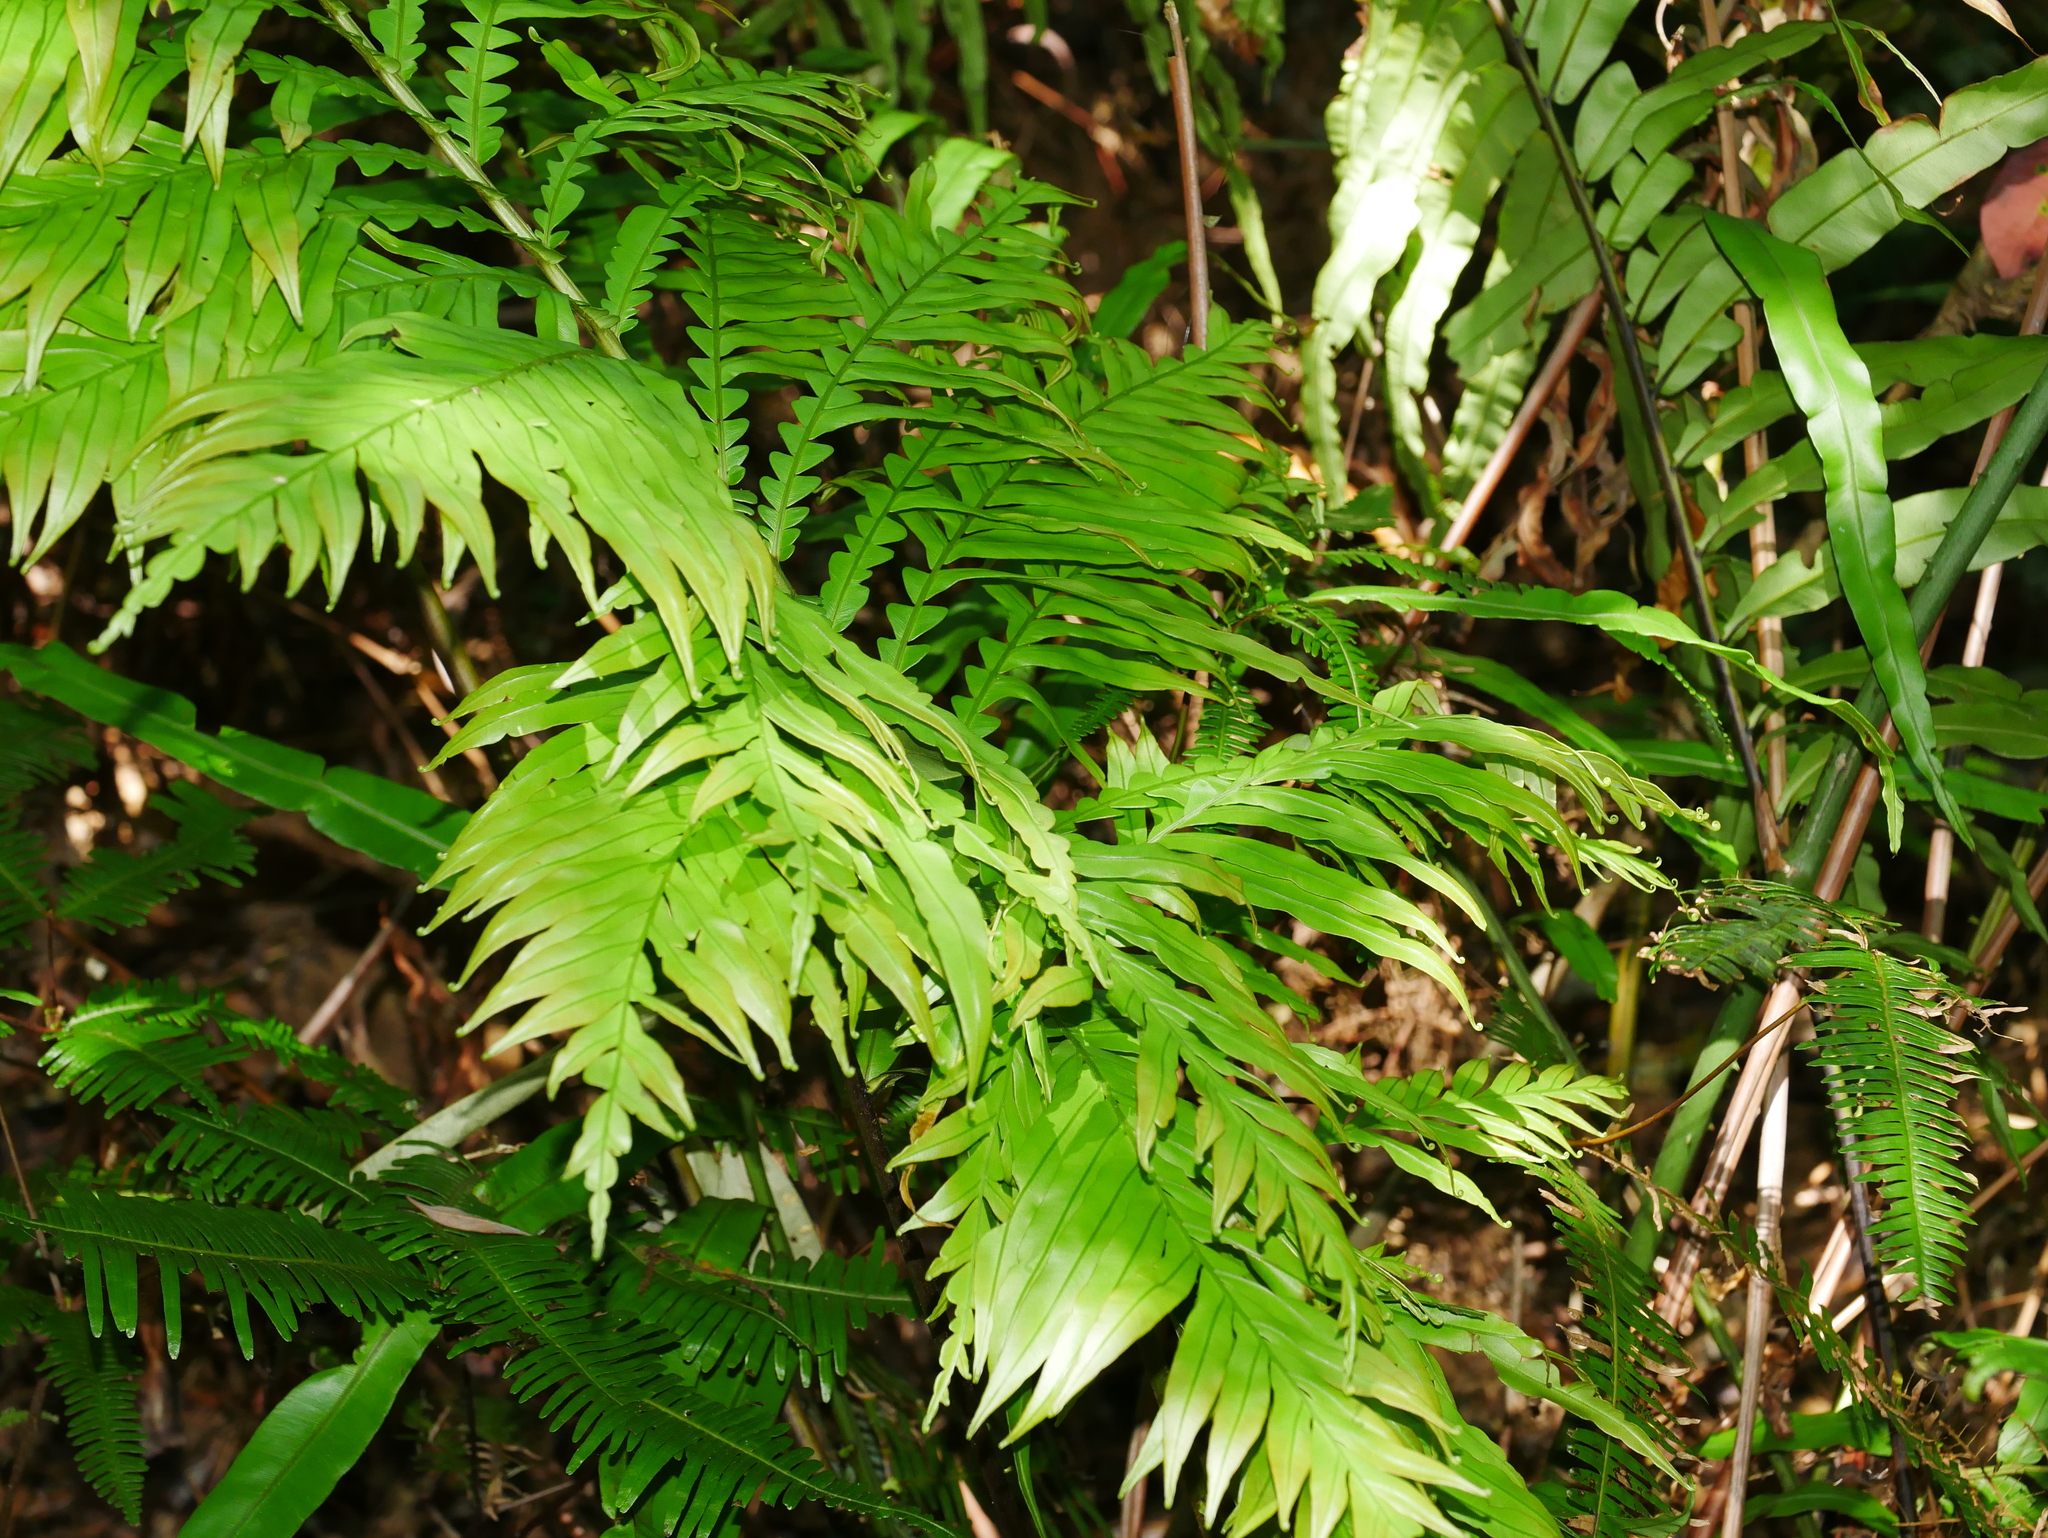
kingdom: Plantae
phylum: Tracheophyta
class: Polypodiopsida
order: Polypodiales
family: Blechnaceae
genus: Blechnopsis
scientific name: Blechnopsis orientalis
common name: Oriental blechnum
